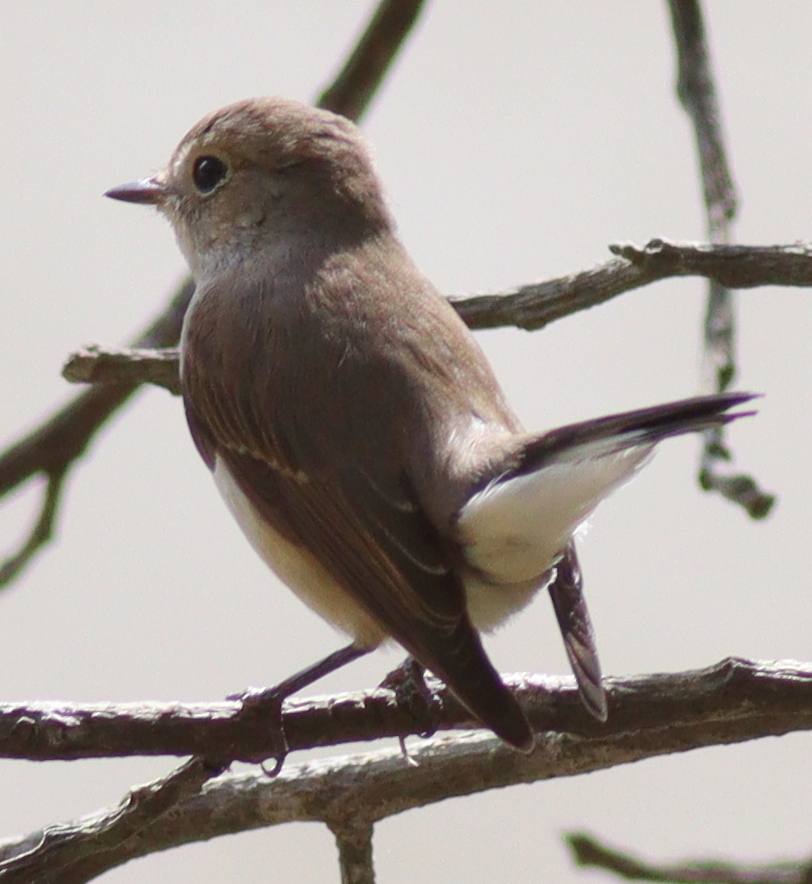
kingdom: Animalia
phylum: Chordata
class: Aves
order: Passeriformes
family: Muscicapidae
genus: Ficedula
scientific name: Ficedula albicilla
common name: Taiga flycatcher
